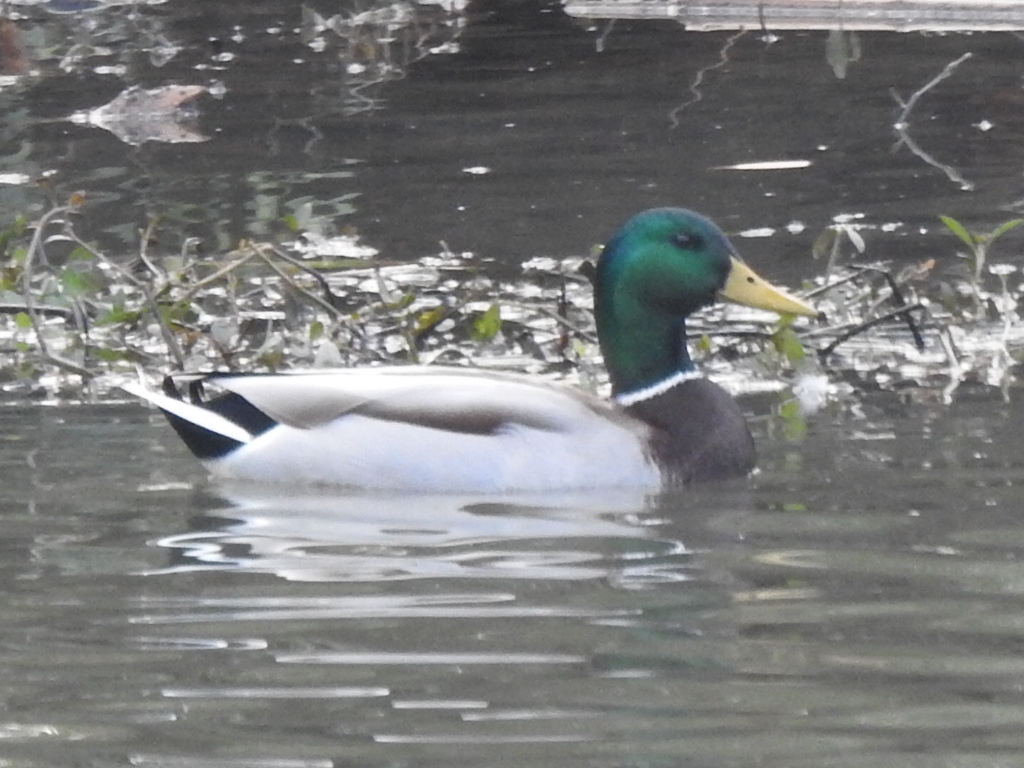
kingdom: Animalia
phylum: Chordata
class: Aves
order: Anseriformes
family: Anatidae
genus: Anas
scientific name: Anas platyrhynchos
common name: Mallard
